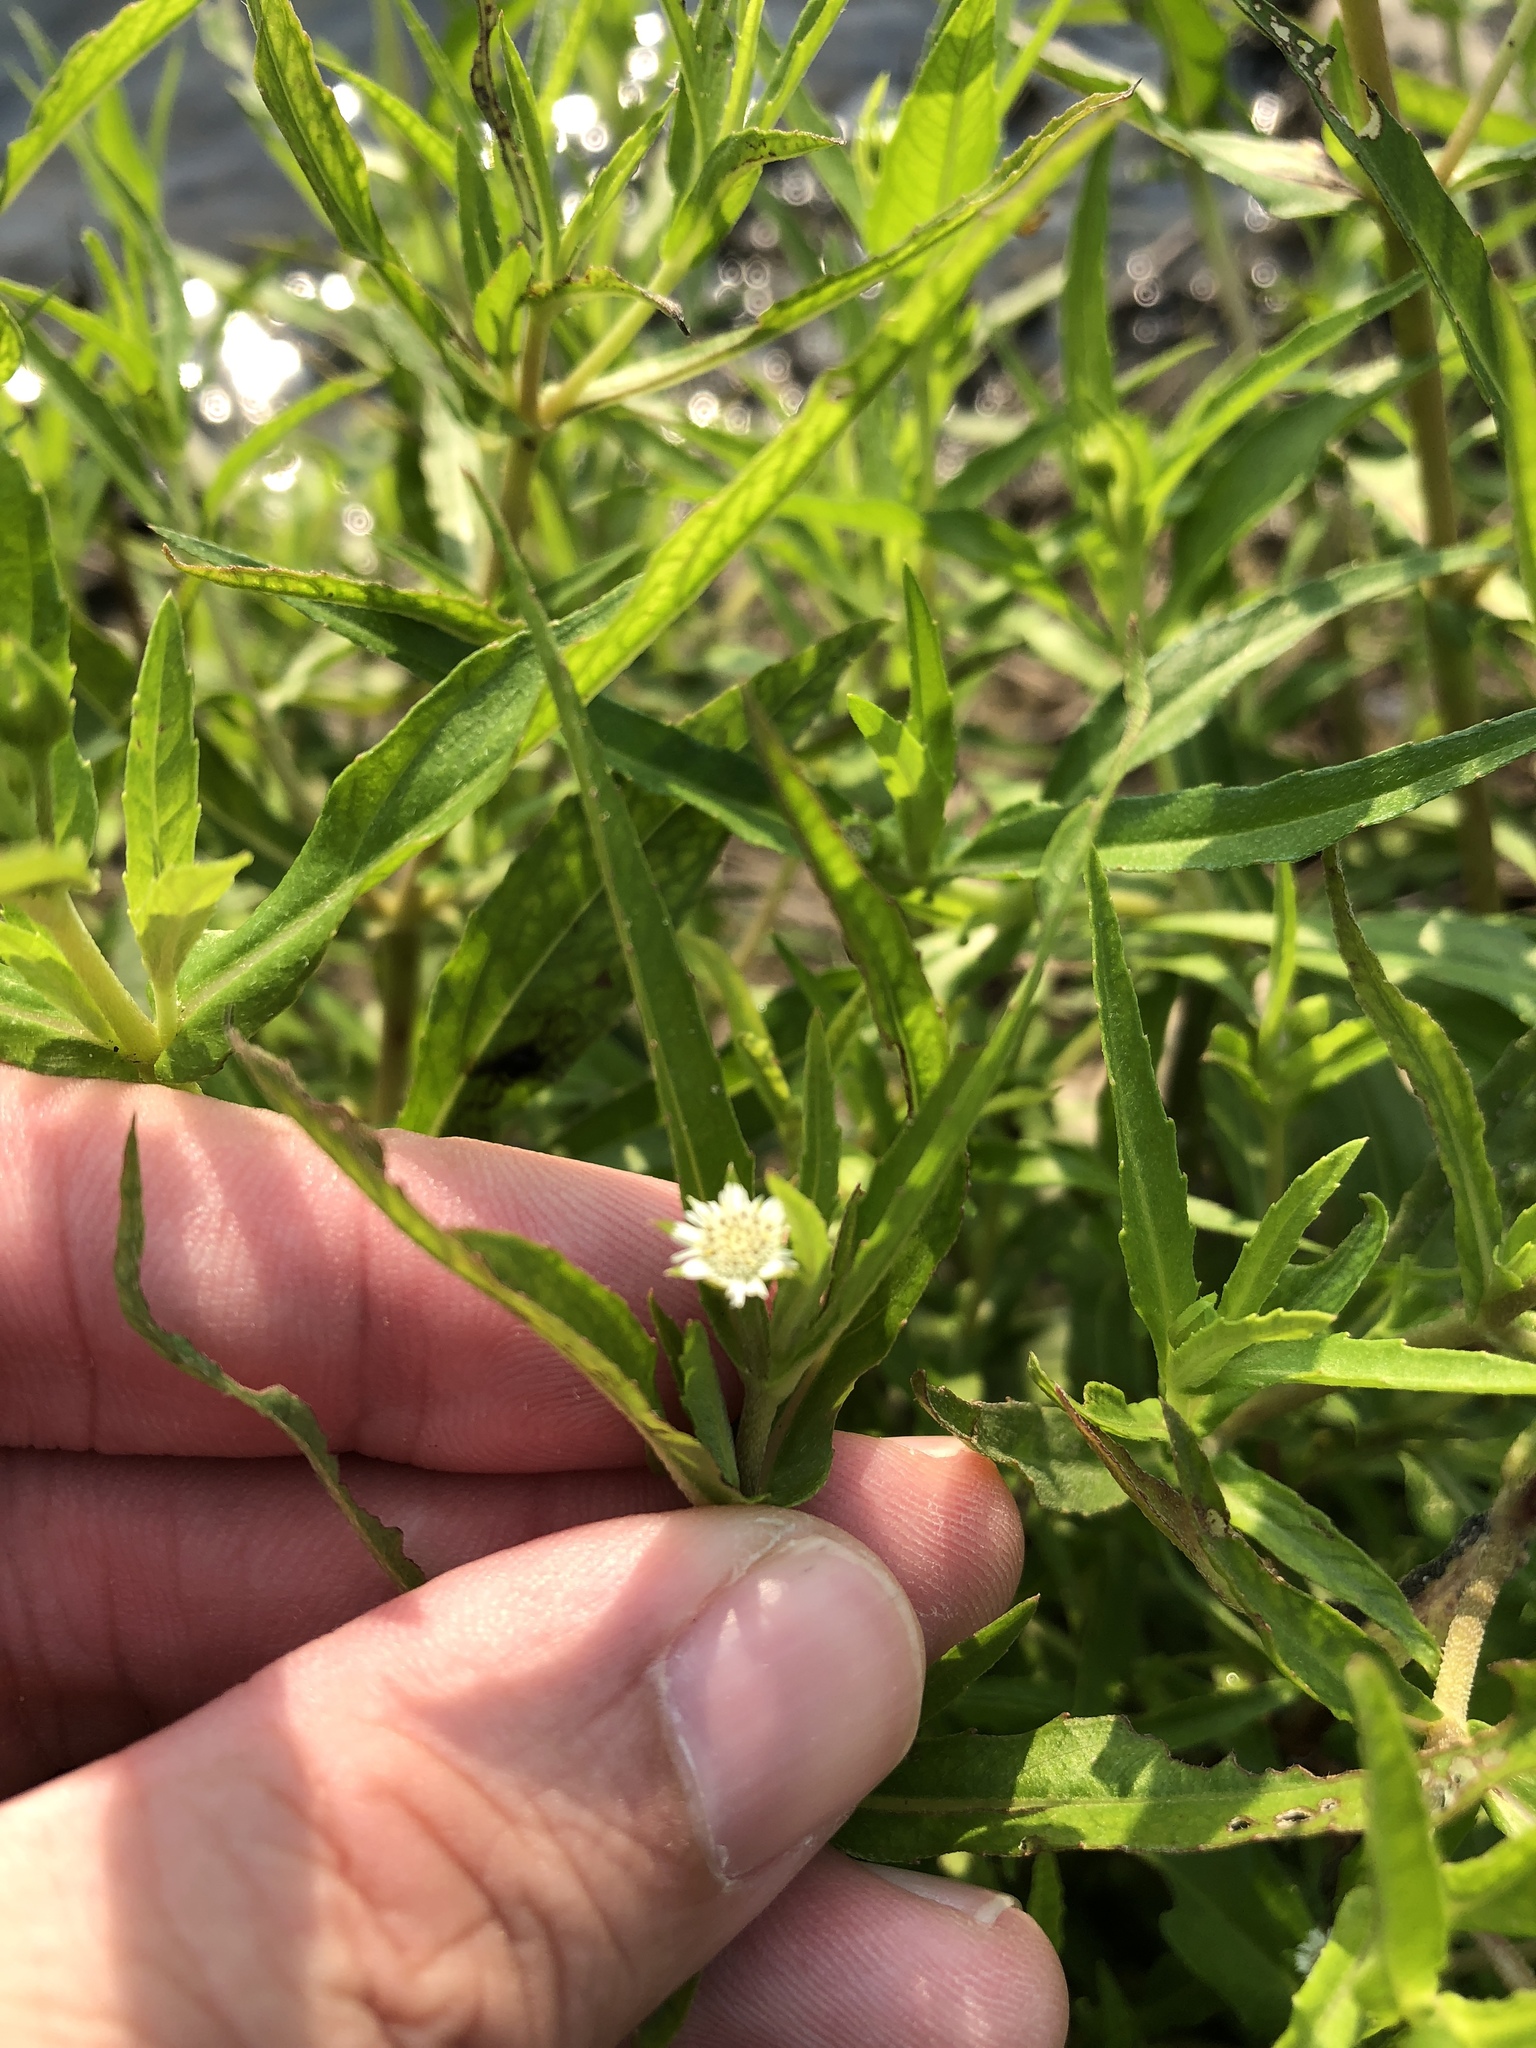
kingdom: Plantae
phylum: Tracheophyta
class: Magnoliopsida
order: Asterales
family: Asteraceae
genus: Eclipta
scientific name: Eclipta prostrata
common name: False daisy
